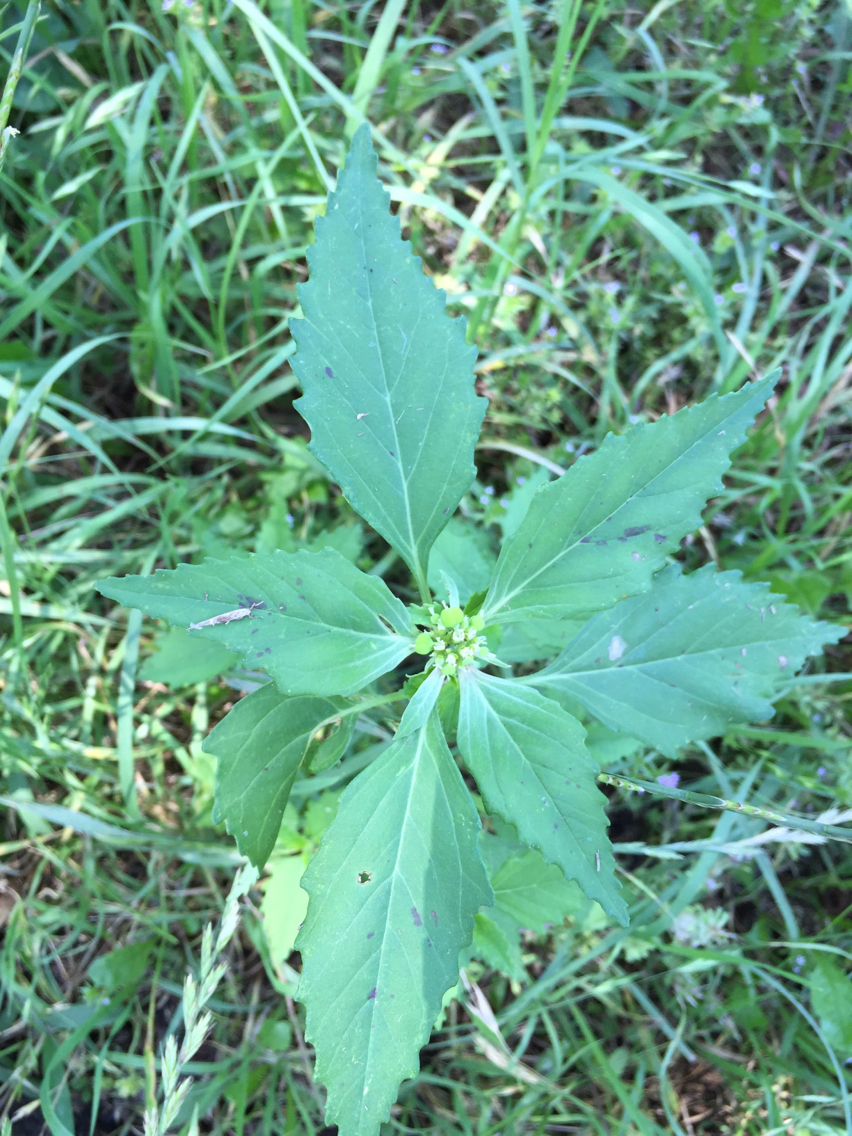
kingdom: Plantae
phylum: Tracheophyta
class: Magnoliopsida
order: Malpighiales
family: Euphorbiaceae
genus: Euphorbia
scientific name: Euphorbia dentata
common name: Dentate spurge
